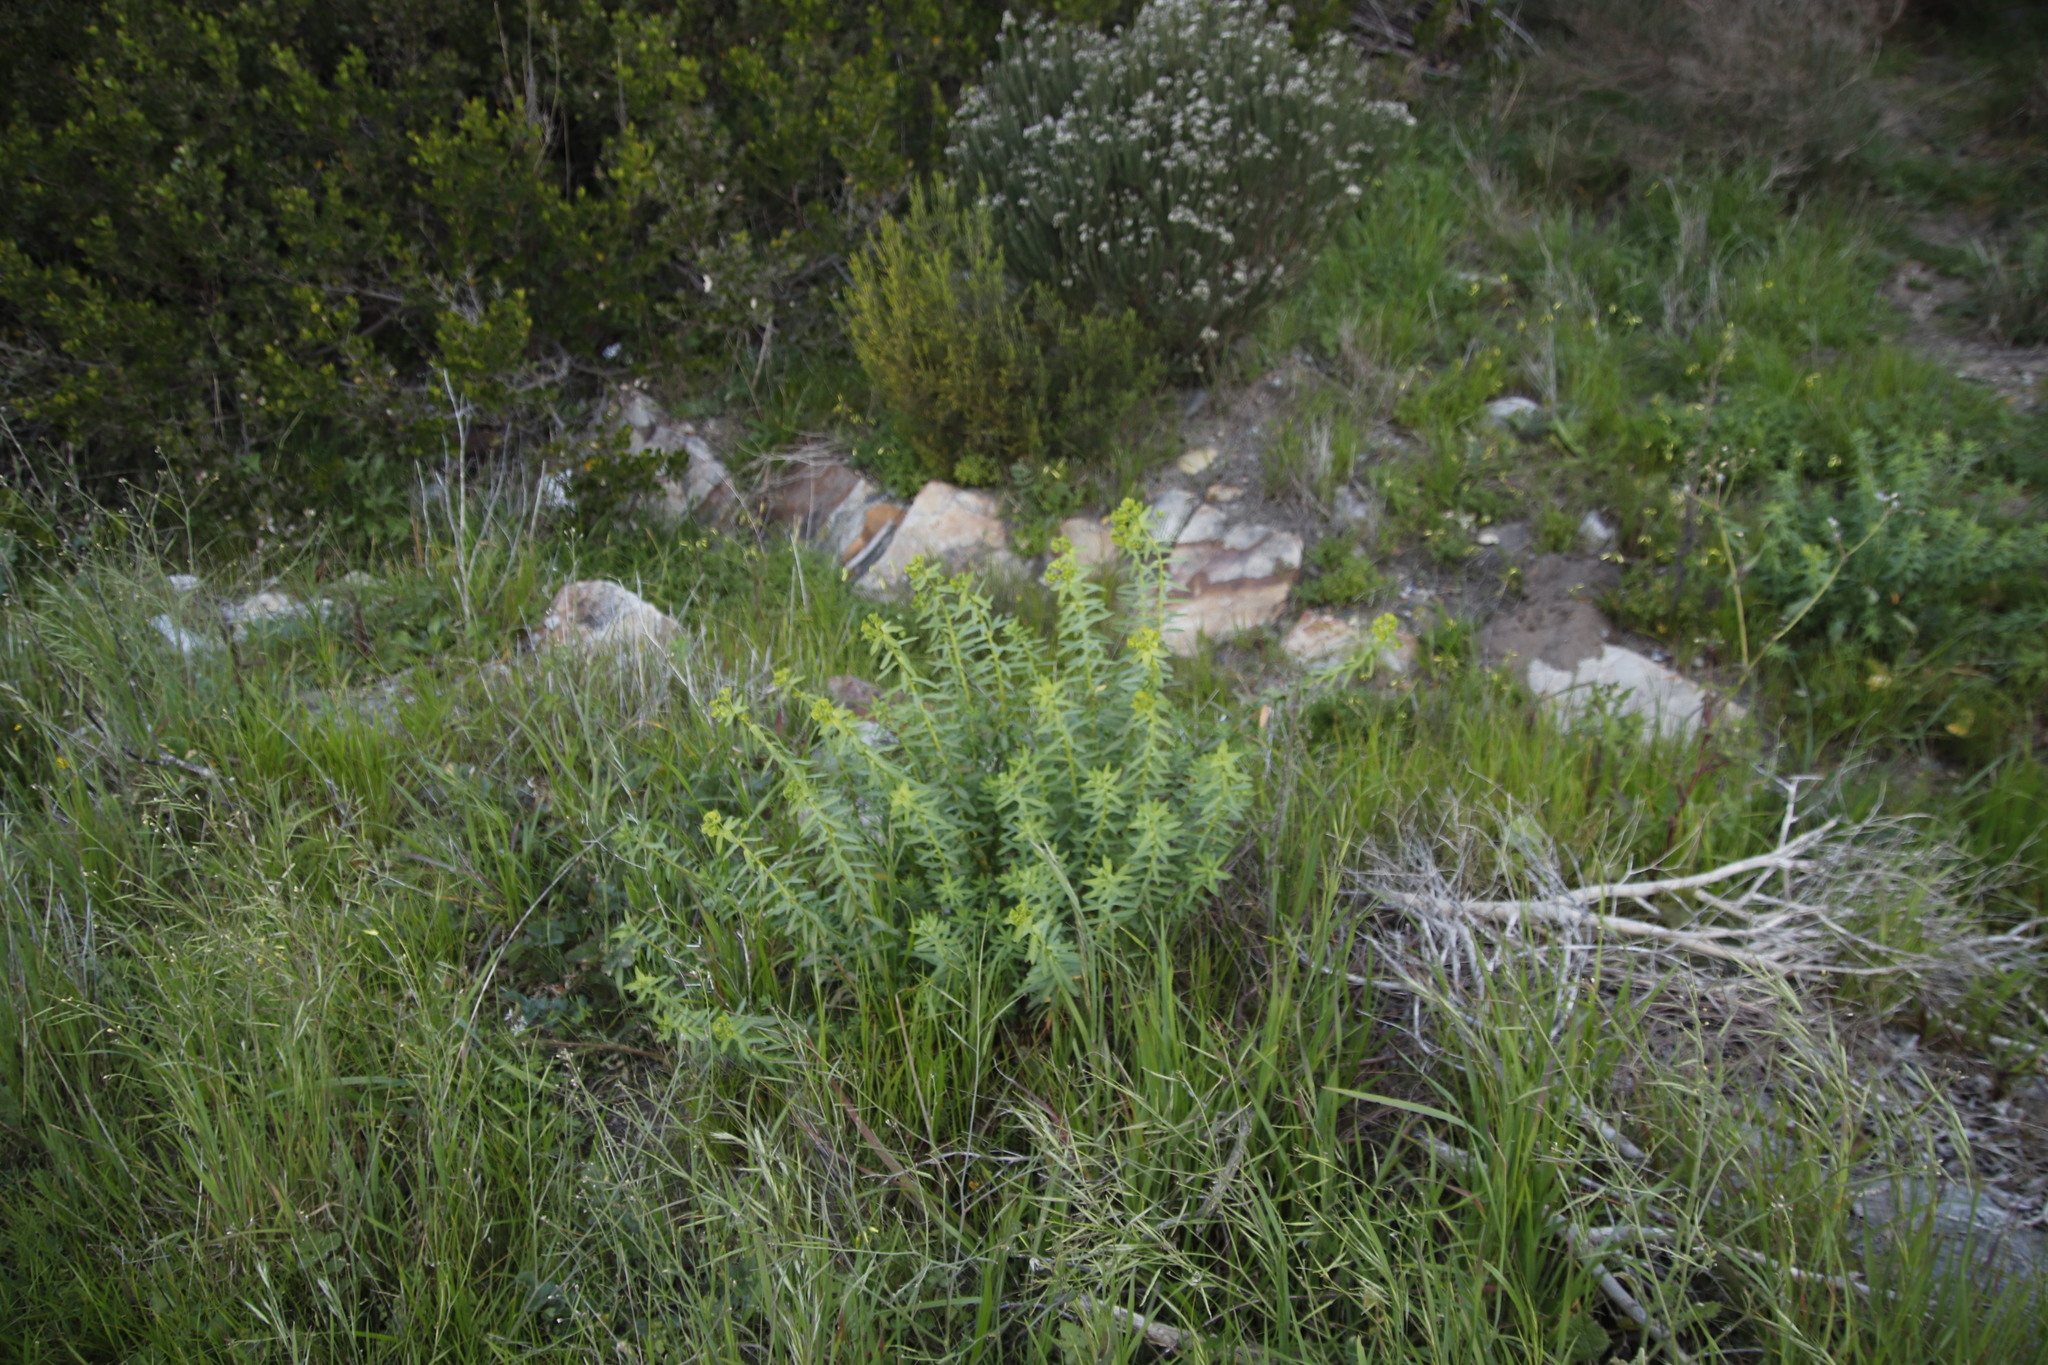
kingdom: Plantae
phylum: Tracheophyta
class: Magnoliopsida
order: Malpighiales
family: Euphorbiaceae
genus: Euphorbia
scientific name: Euphorbia terracina
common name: Geraldton carnation weed
